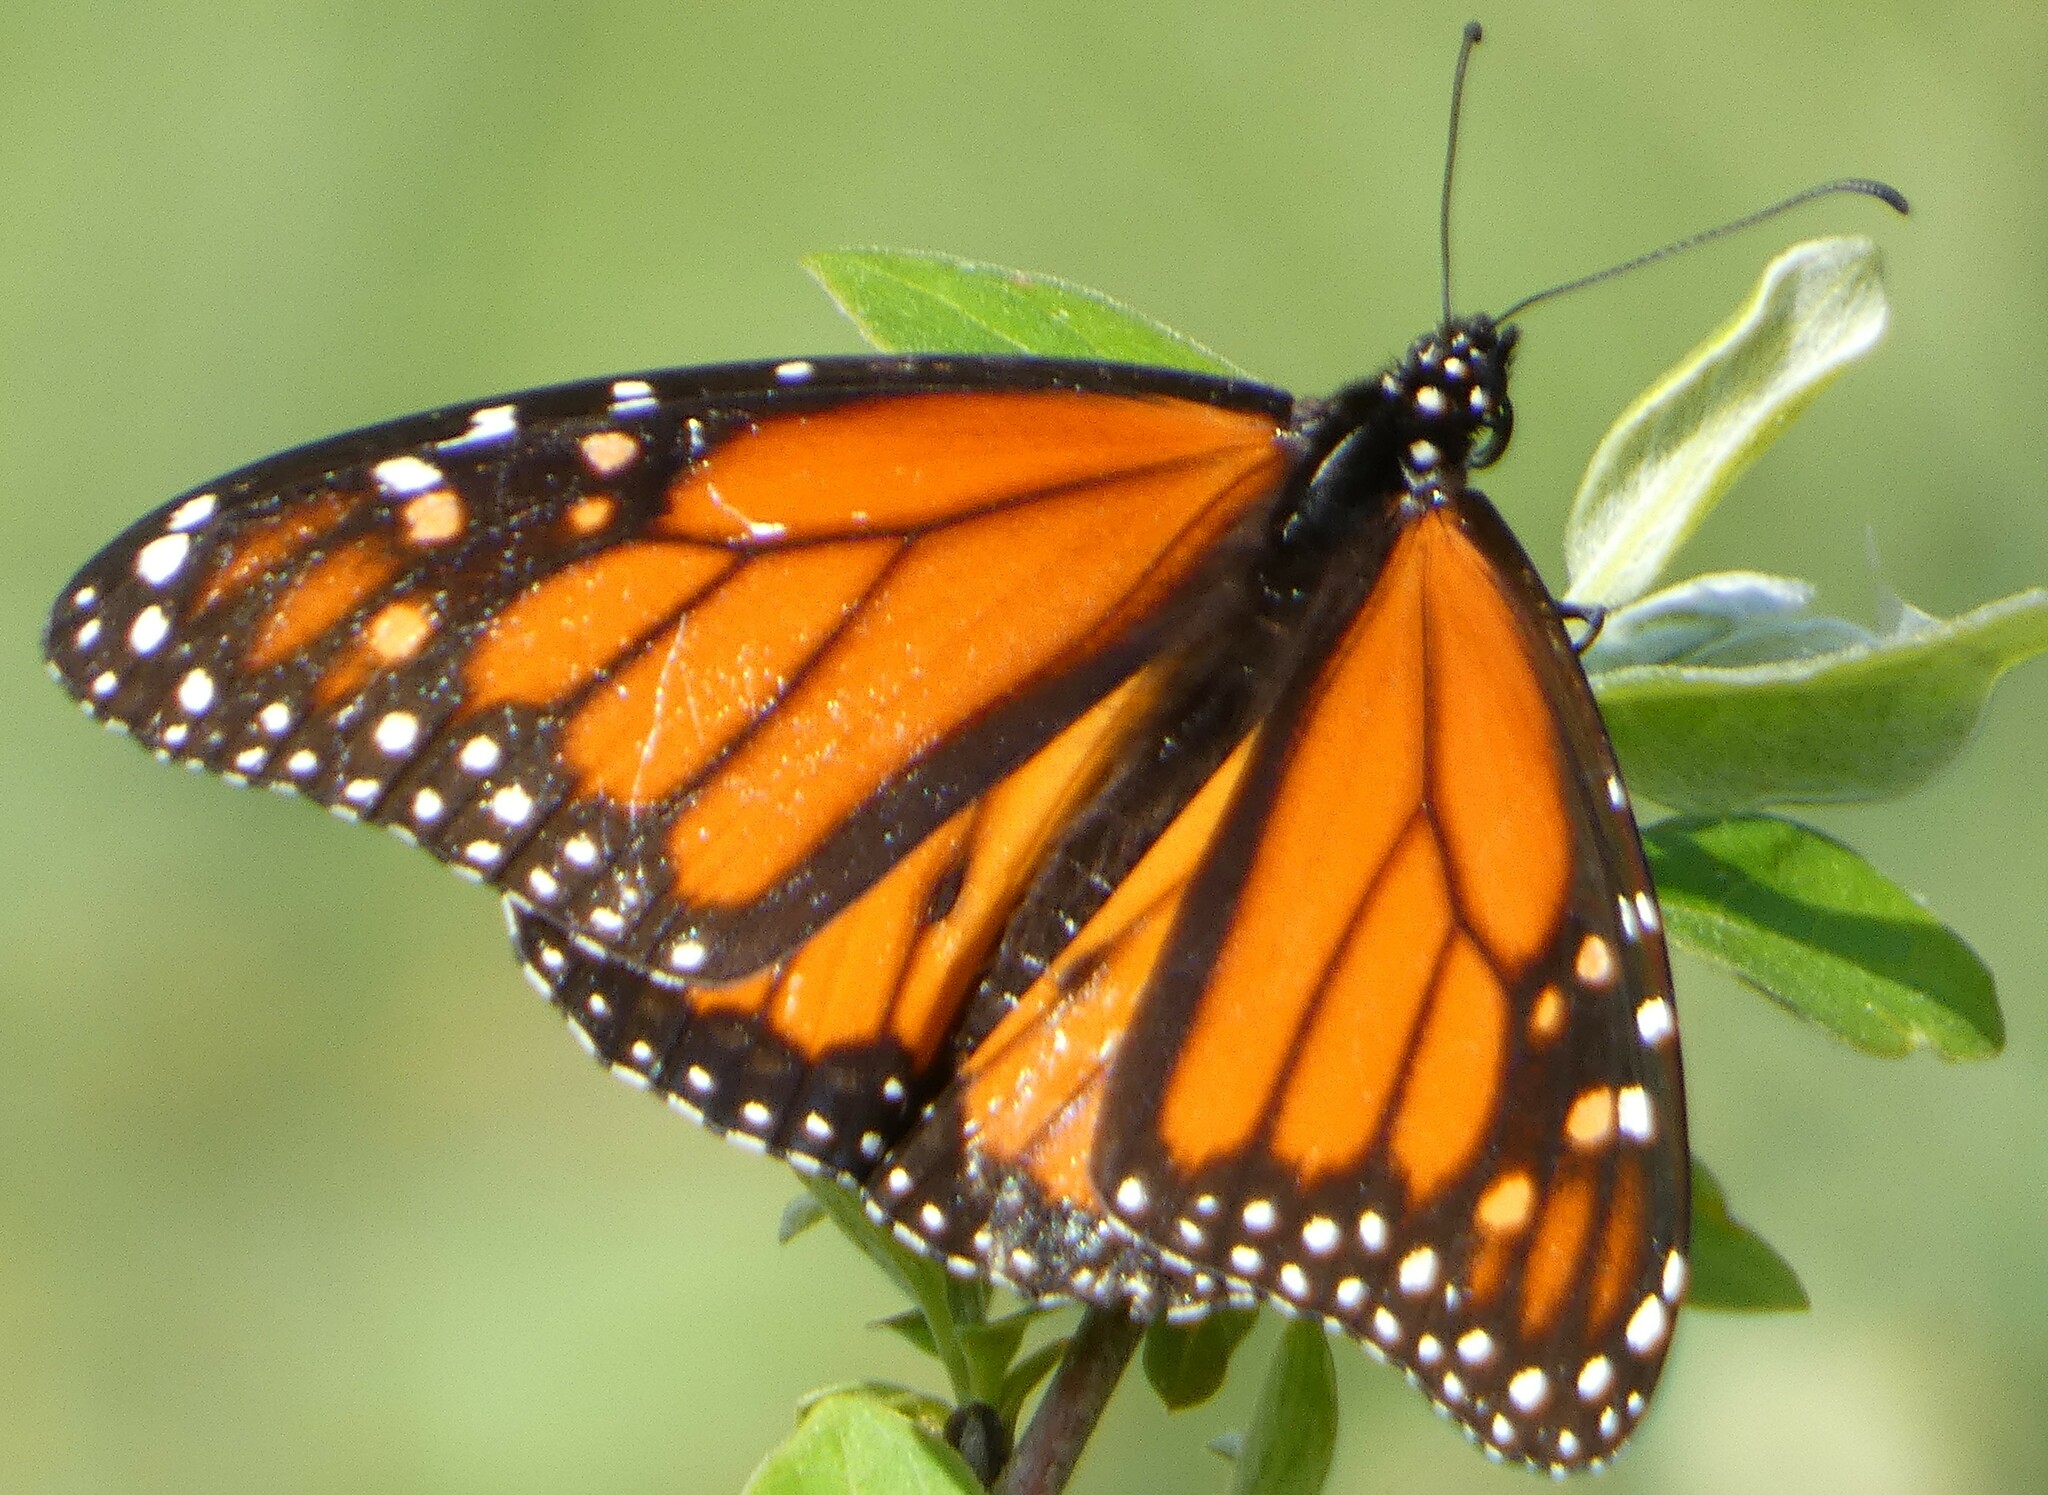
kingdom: Animalia
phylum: Arthropoda
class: Insecta
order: Lepidoptera
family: Nymphalidae
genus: Danaus
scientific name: Danaus plexippus
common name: Monarch
